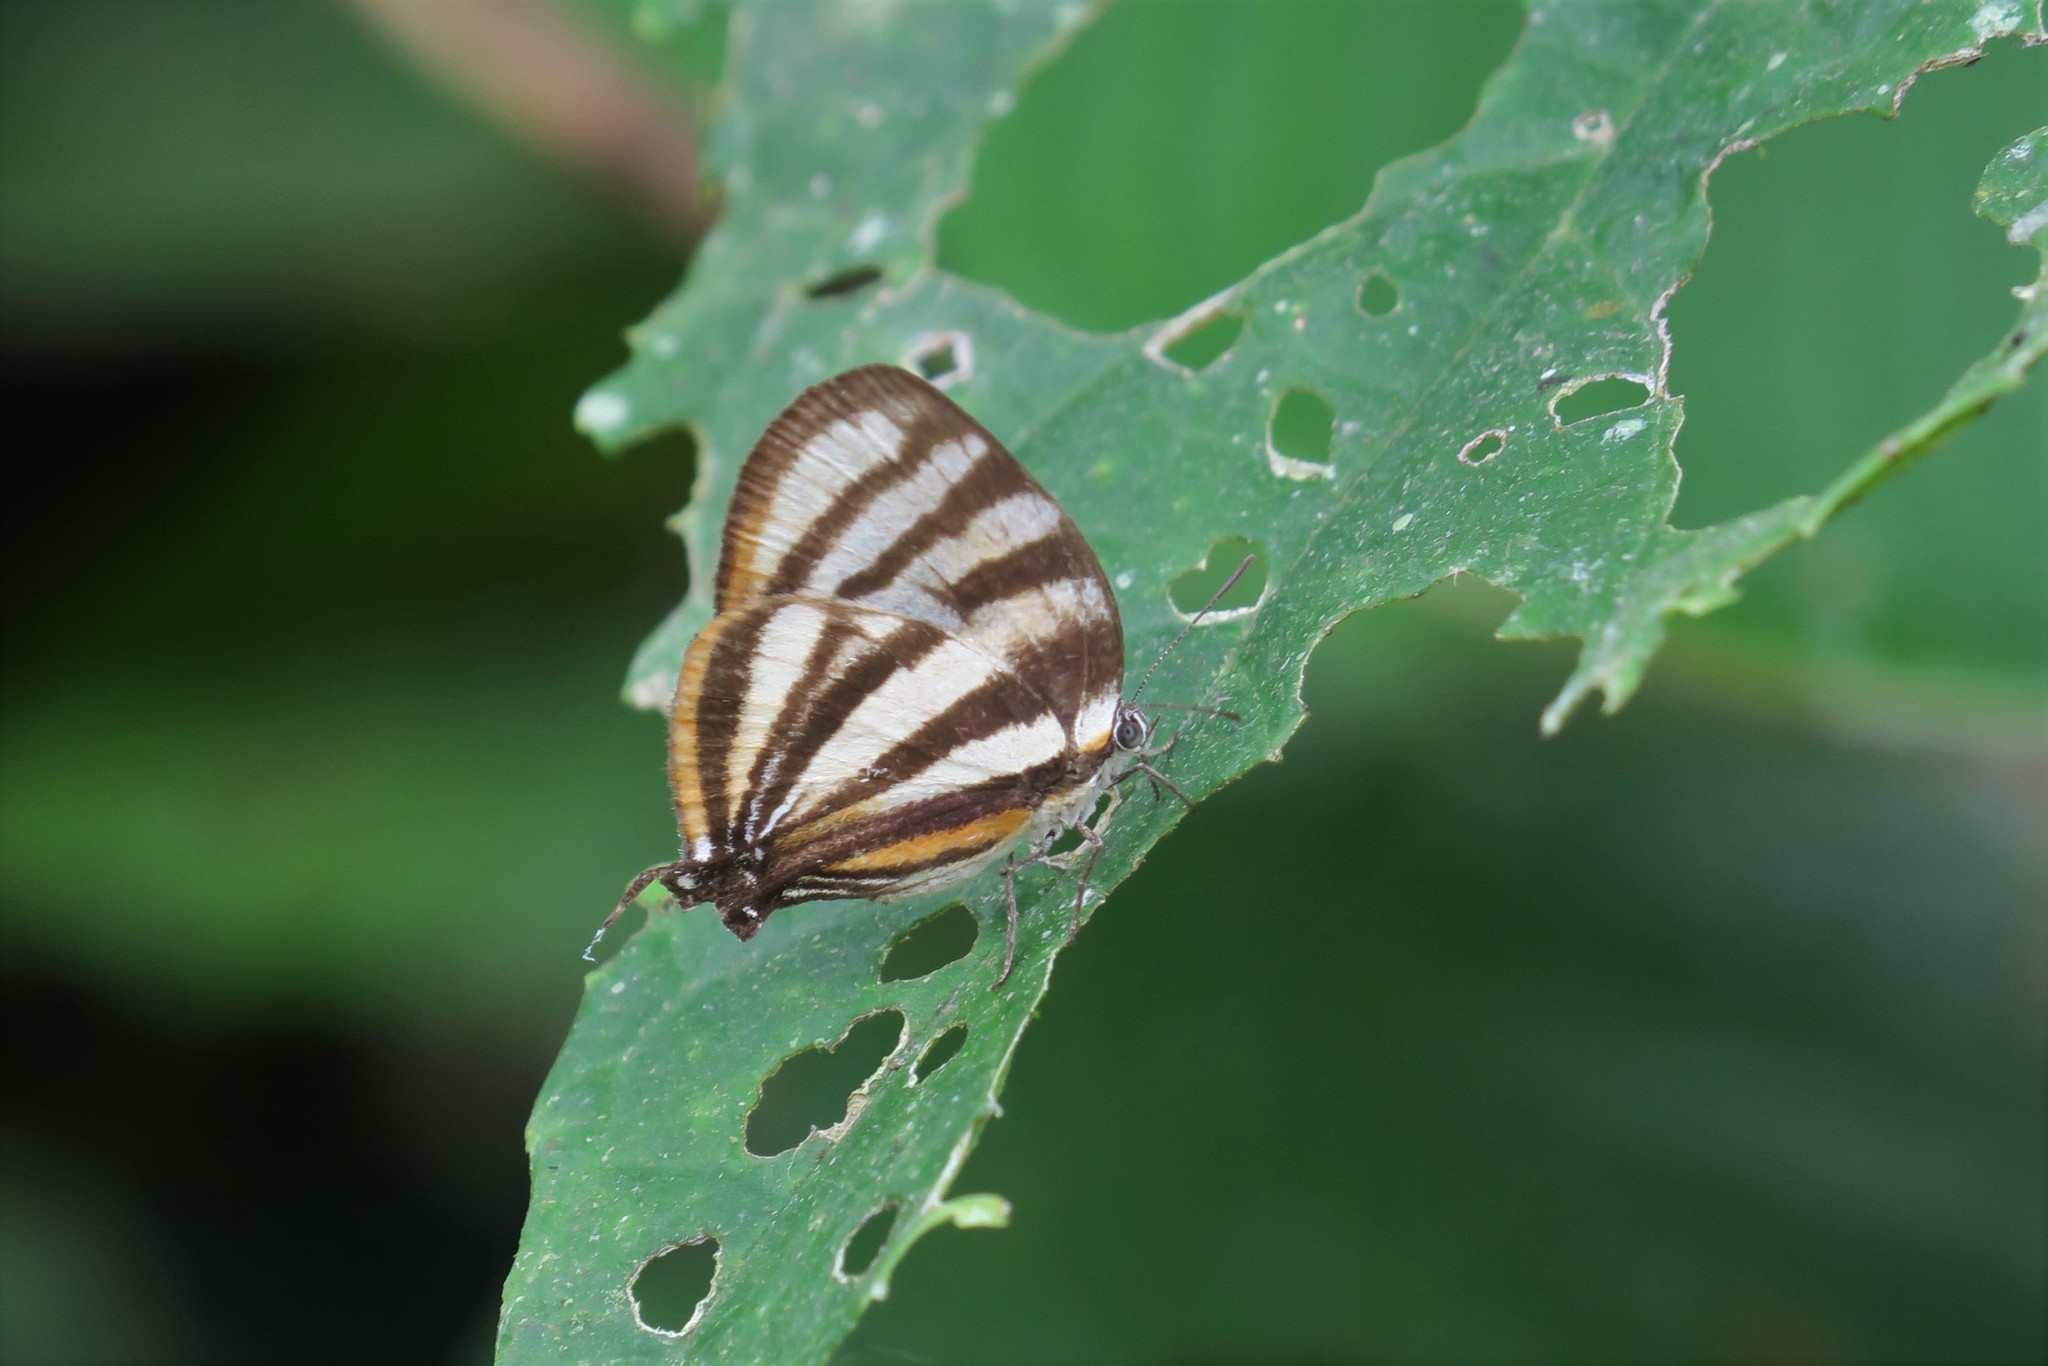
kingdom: Animalia
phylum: Arthropoda
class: Insecta
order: Lepidoptera
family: Lycaenidae
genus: Arawacus
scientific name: Arawacus separata
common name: Separated stripestreak
